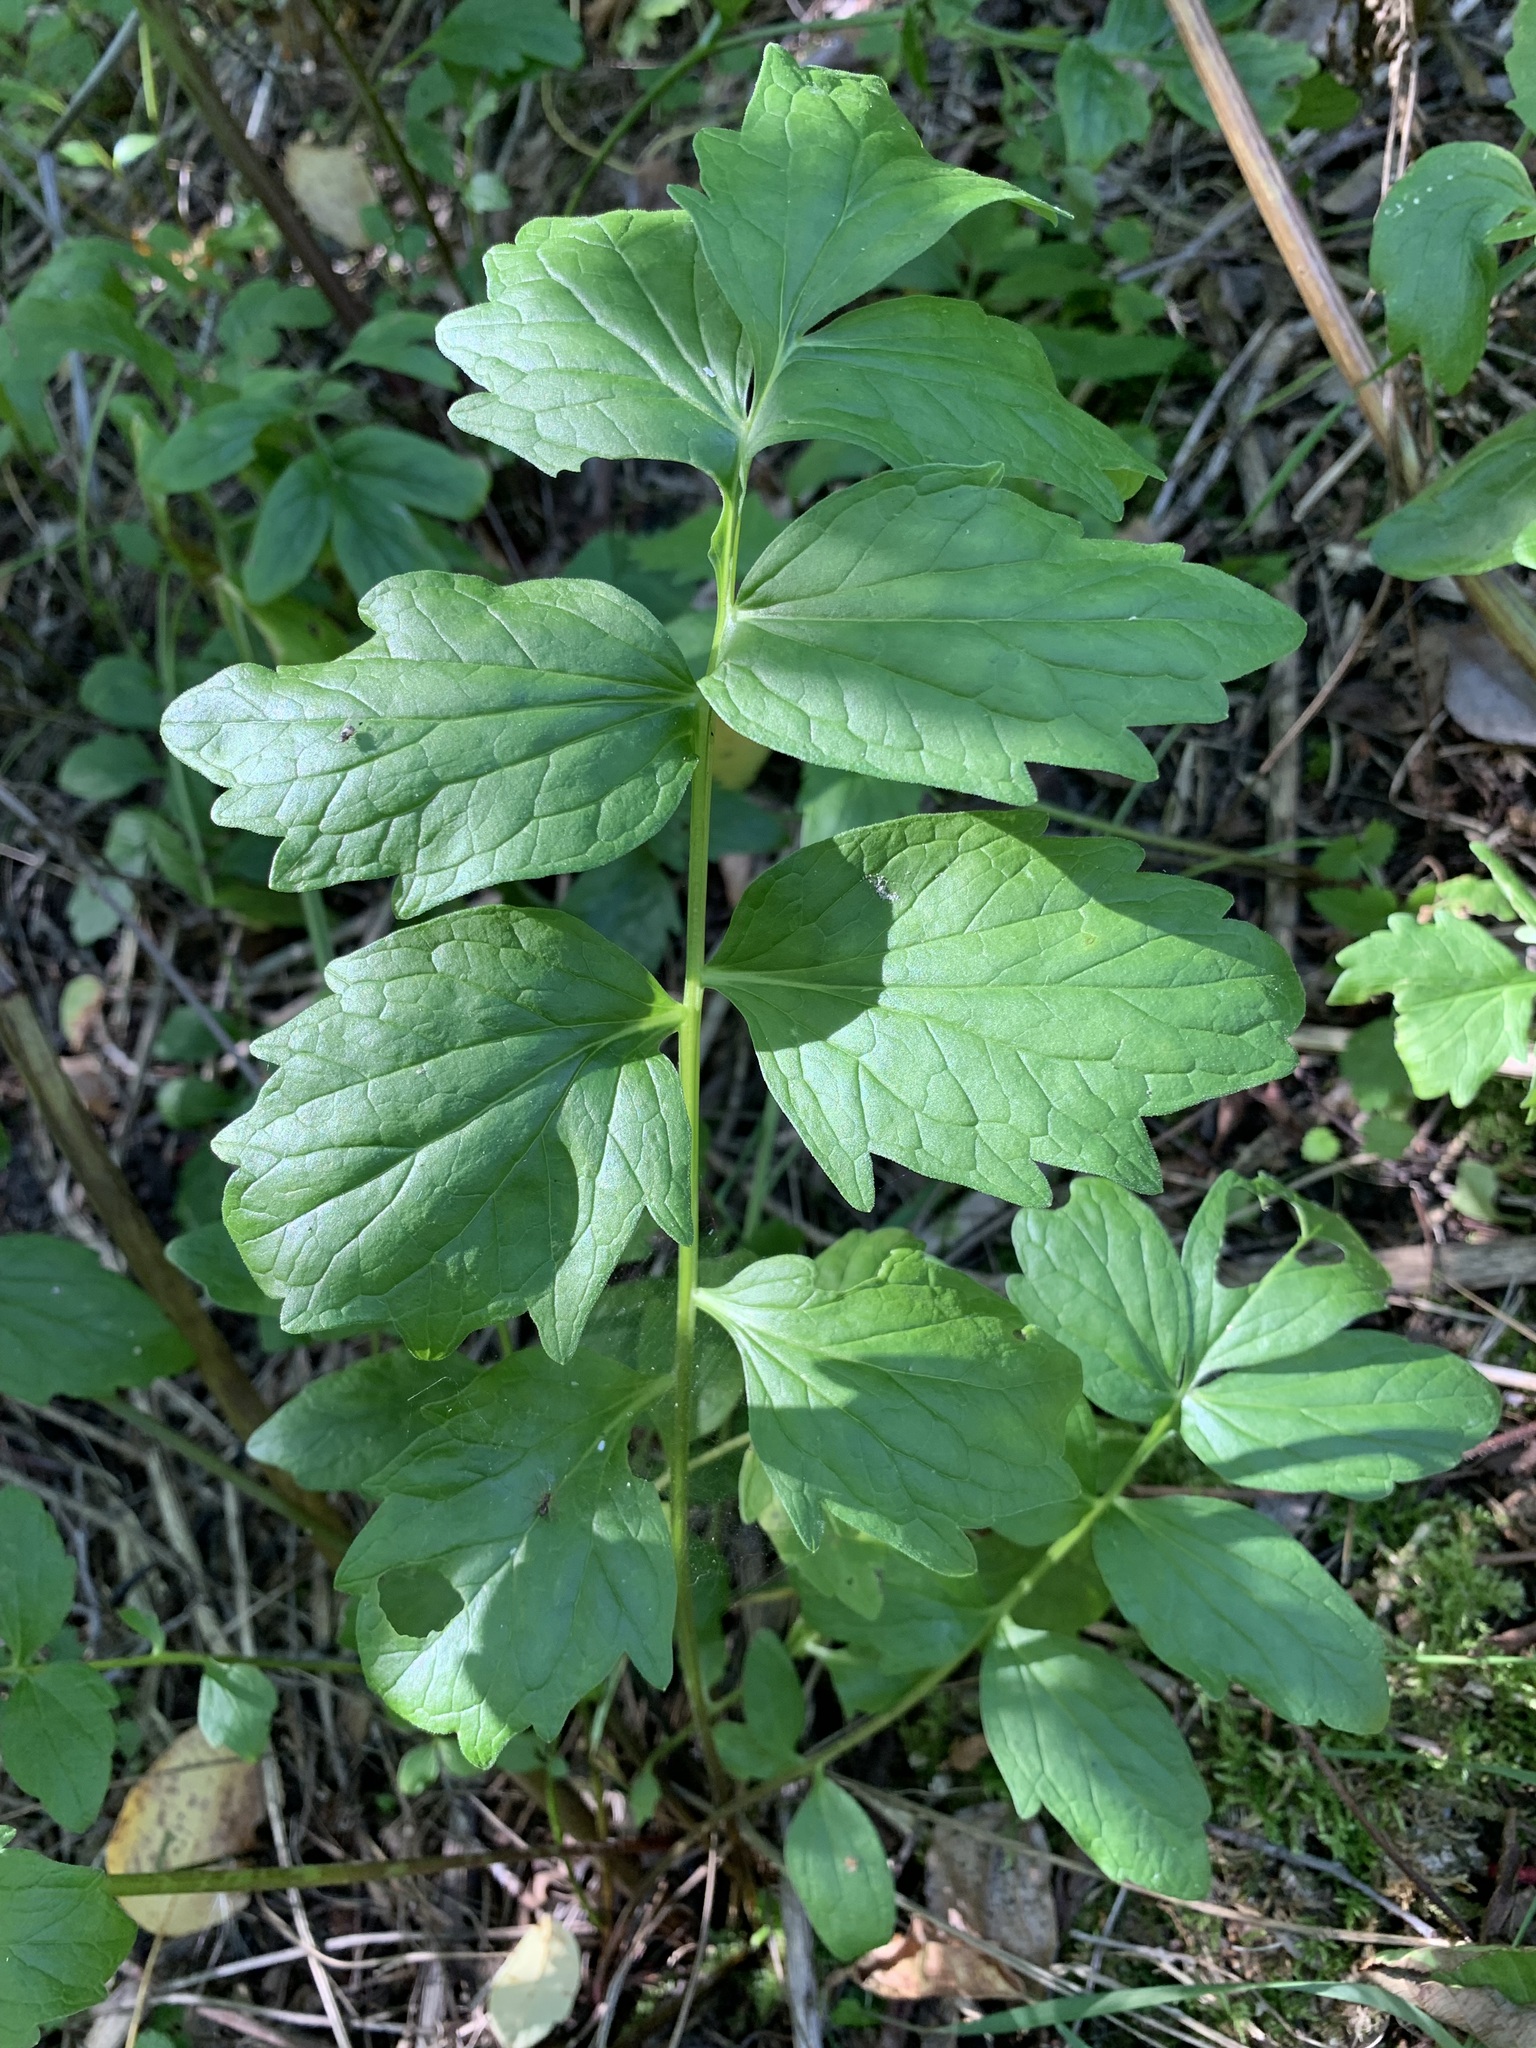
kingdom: Plantae
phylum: Tracheophyta
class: Magnoliopsida
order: Dipsacales
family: Caprifoliaceae
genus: Valeriana
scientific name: Valeriana wolgensis
